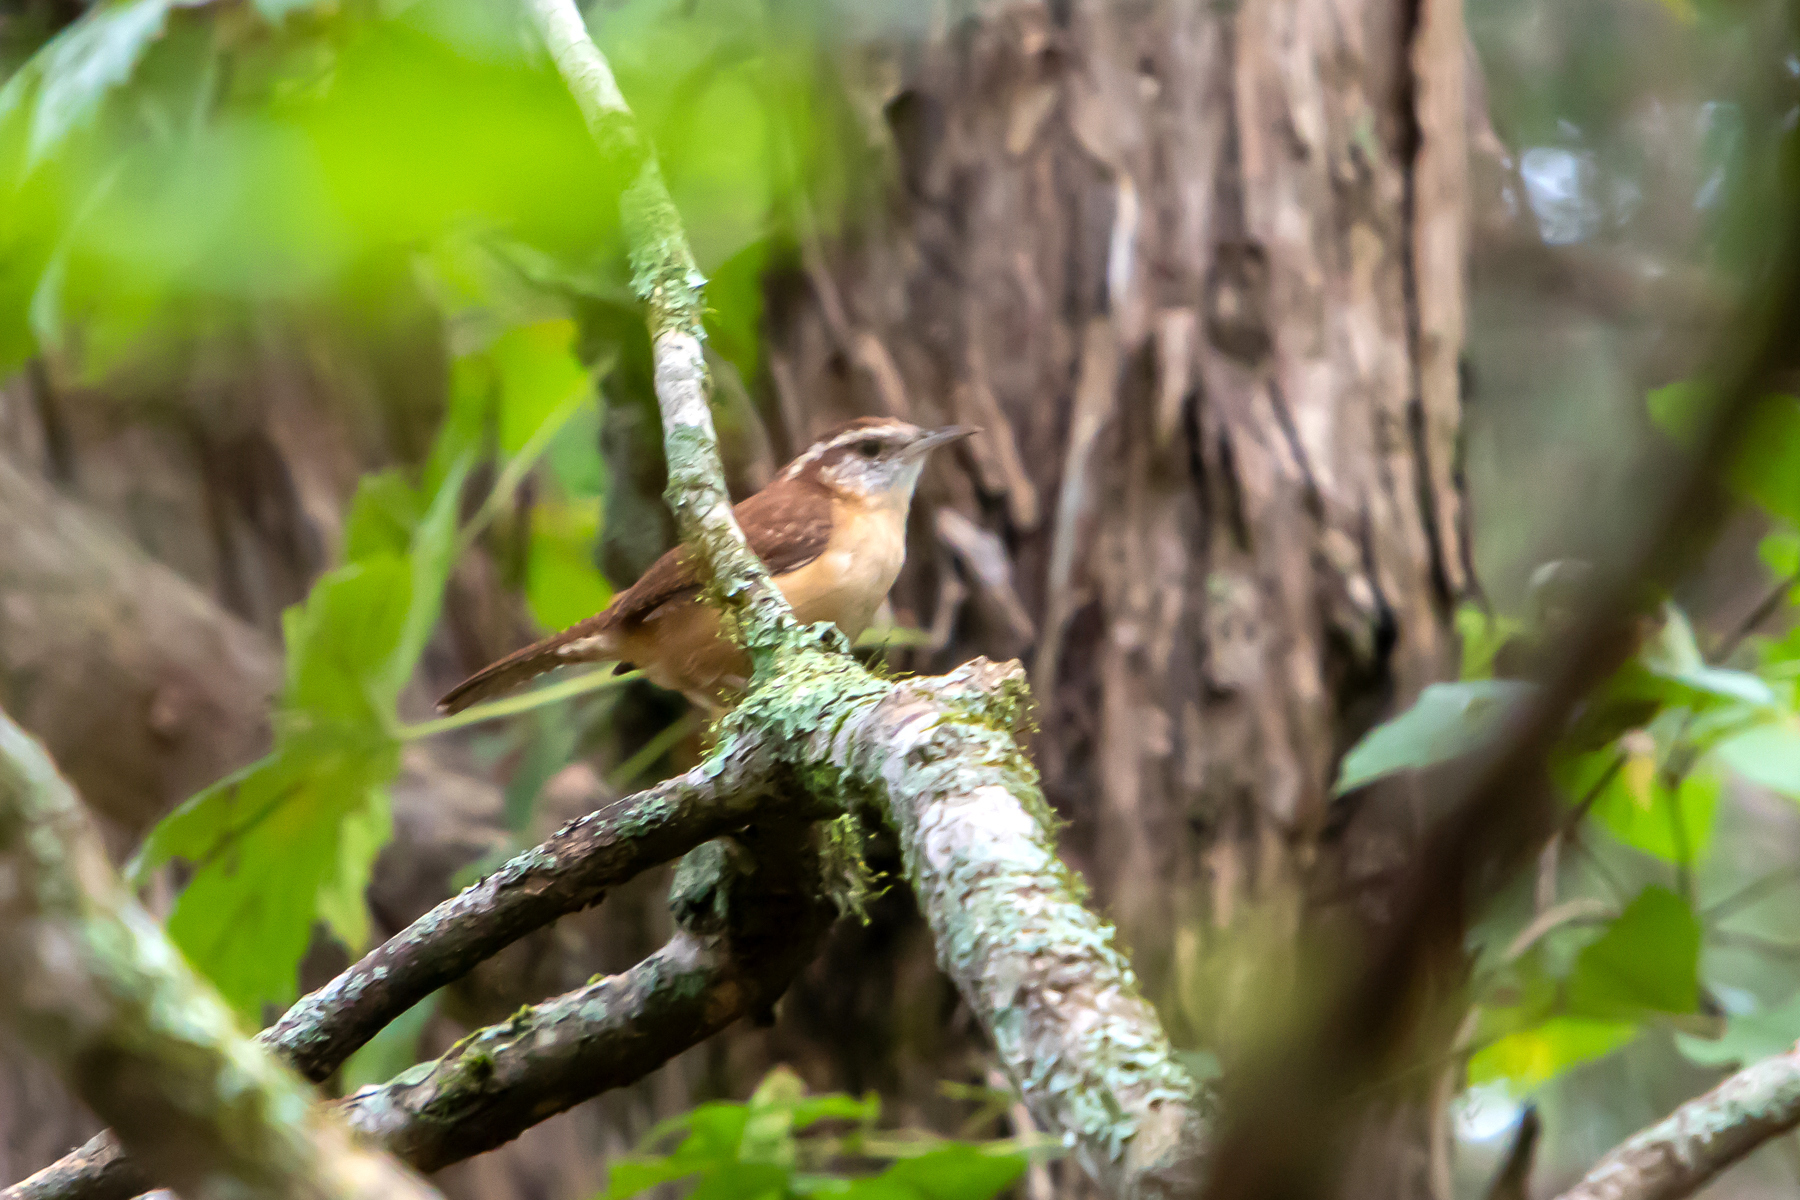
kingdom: Animalia
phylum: Chordata
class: Aves
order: Passeriformes
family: Troglodytidae
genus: Thryothorus
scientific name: Thryothorus ludovicianus
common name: Carolina wren
